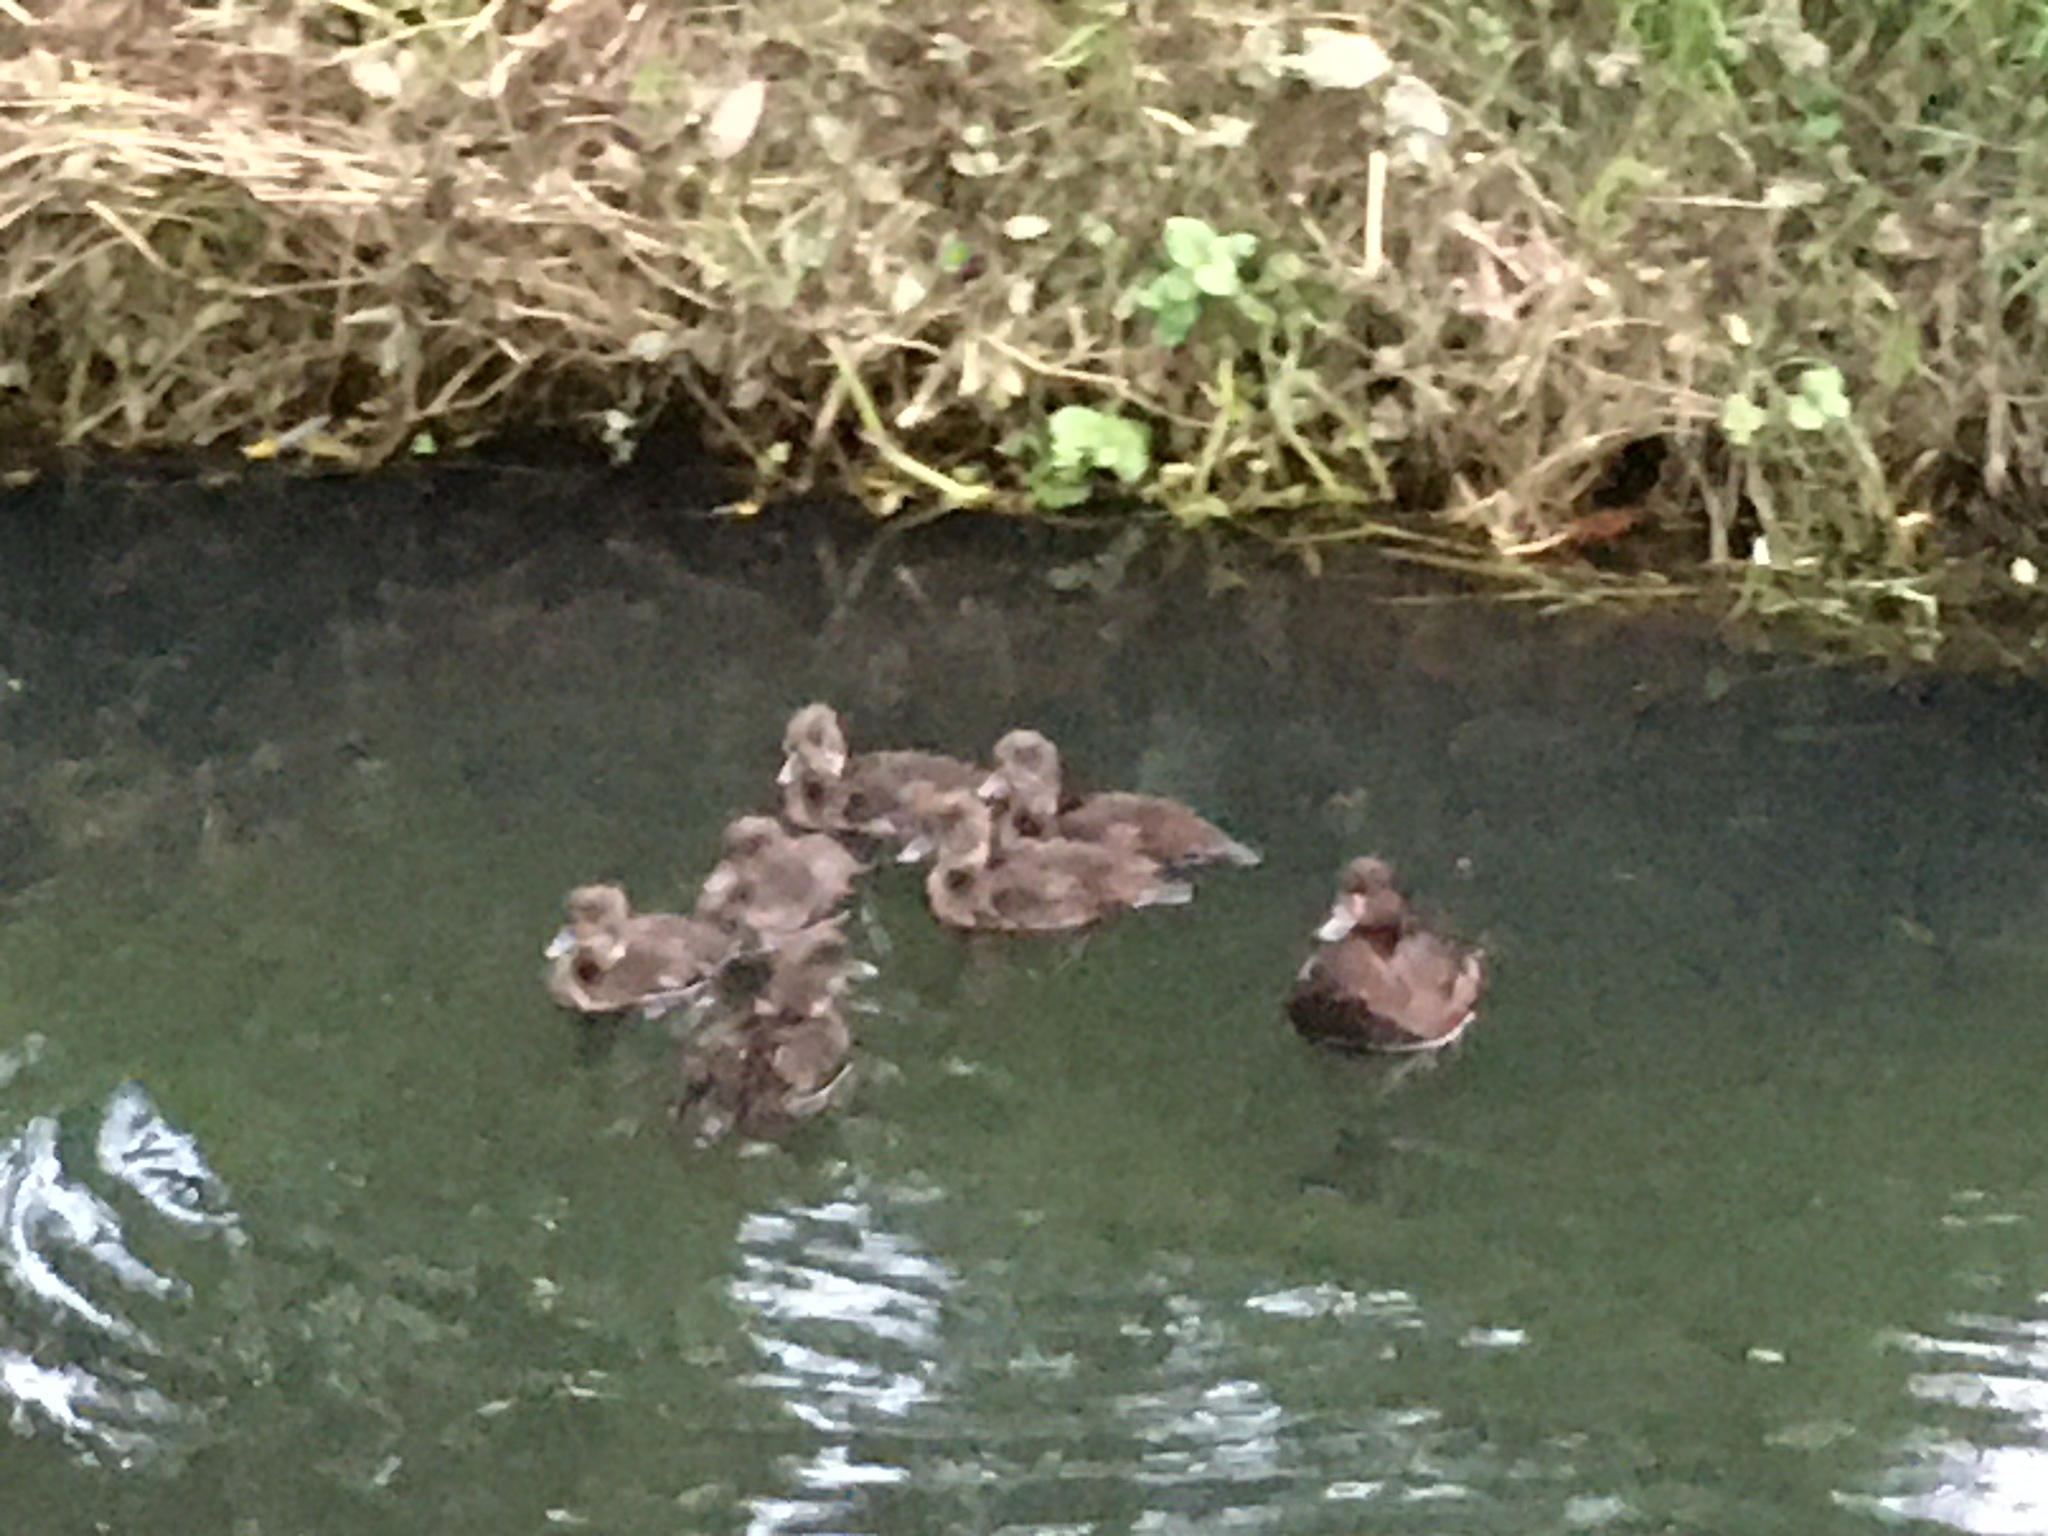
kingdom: Animalia
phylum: Chordata
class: Aves
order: Anseriformes
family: Anatidae
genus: Aythya
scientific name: Aythya novaeseelandiae
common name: New zealand scaup
